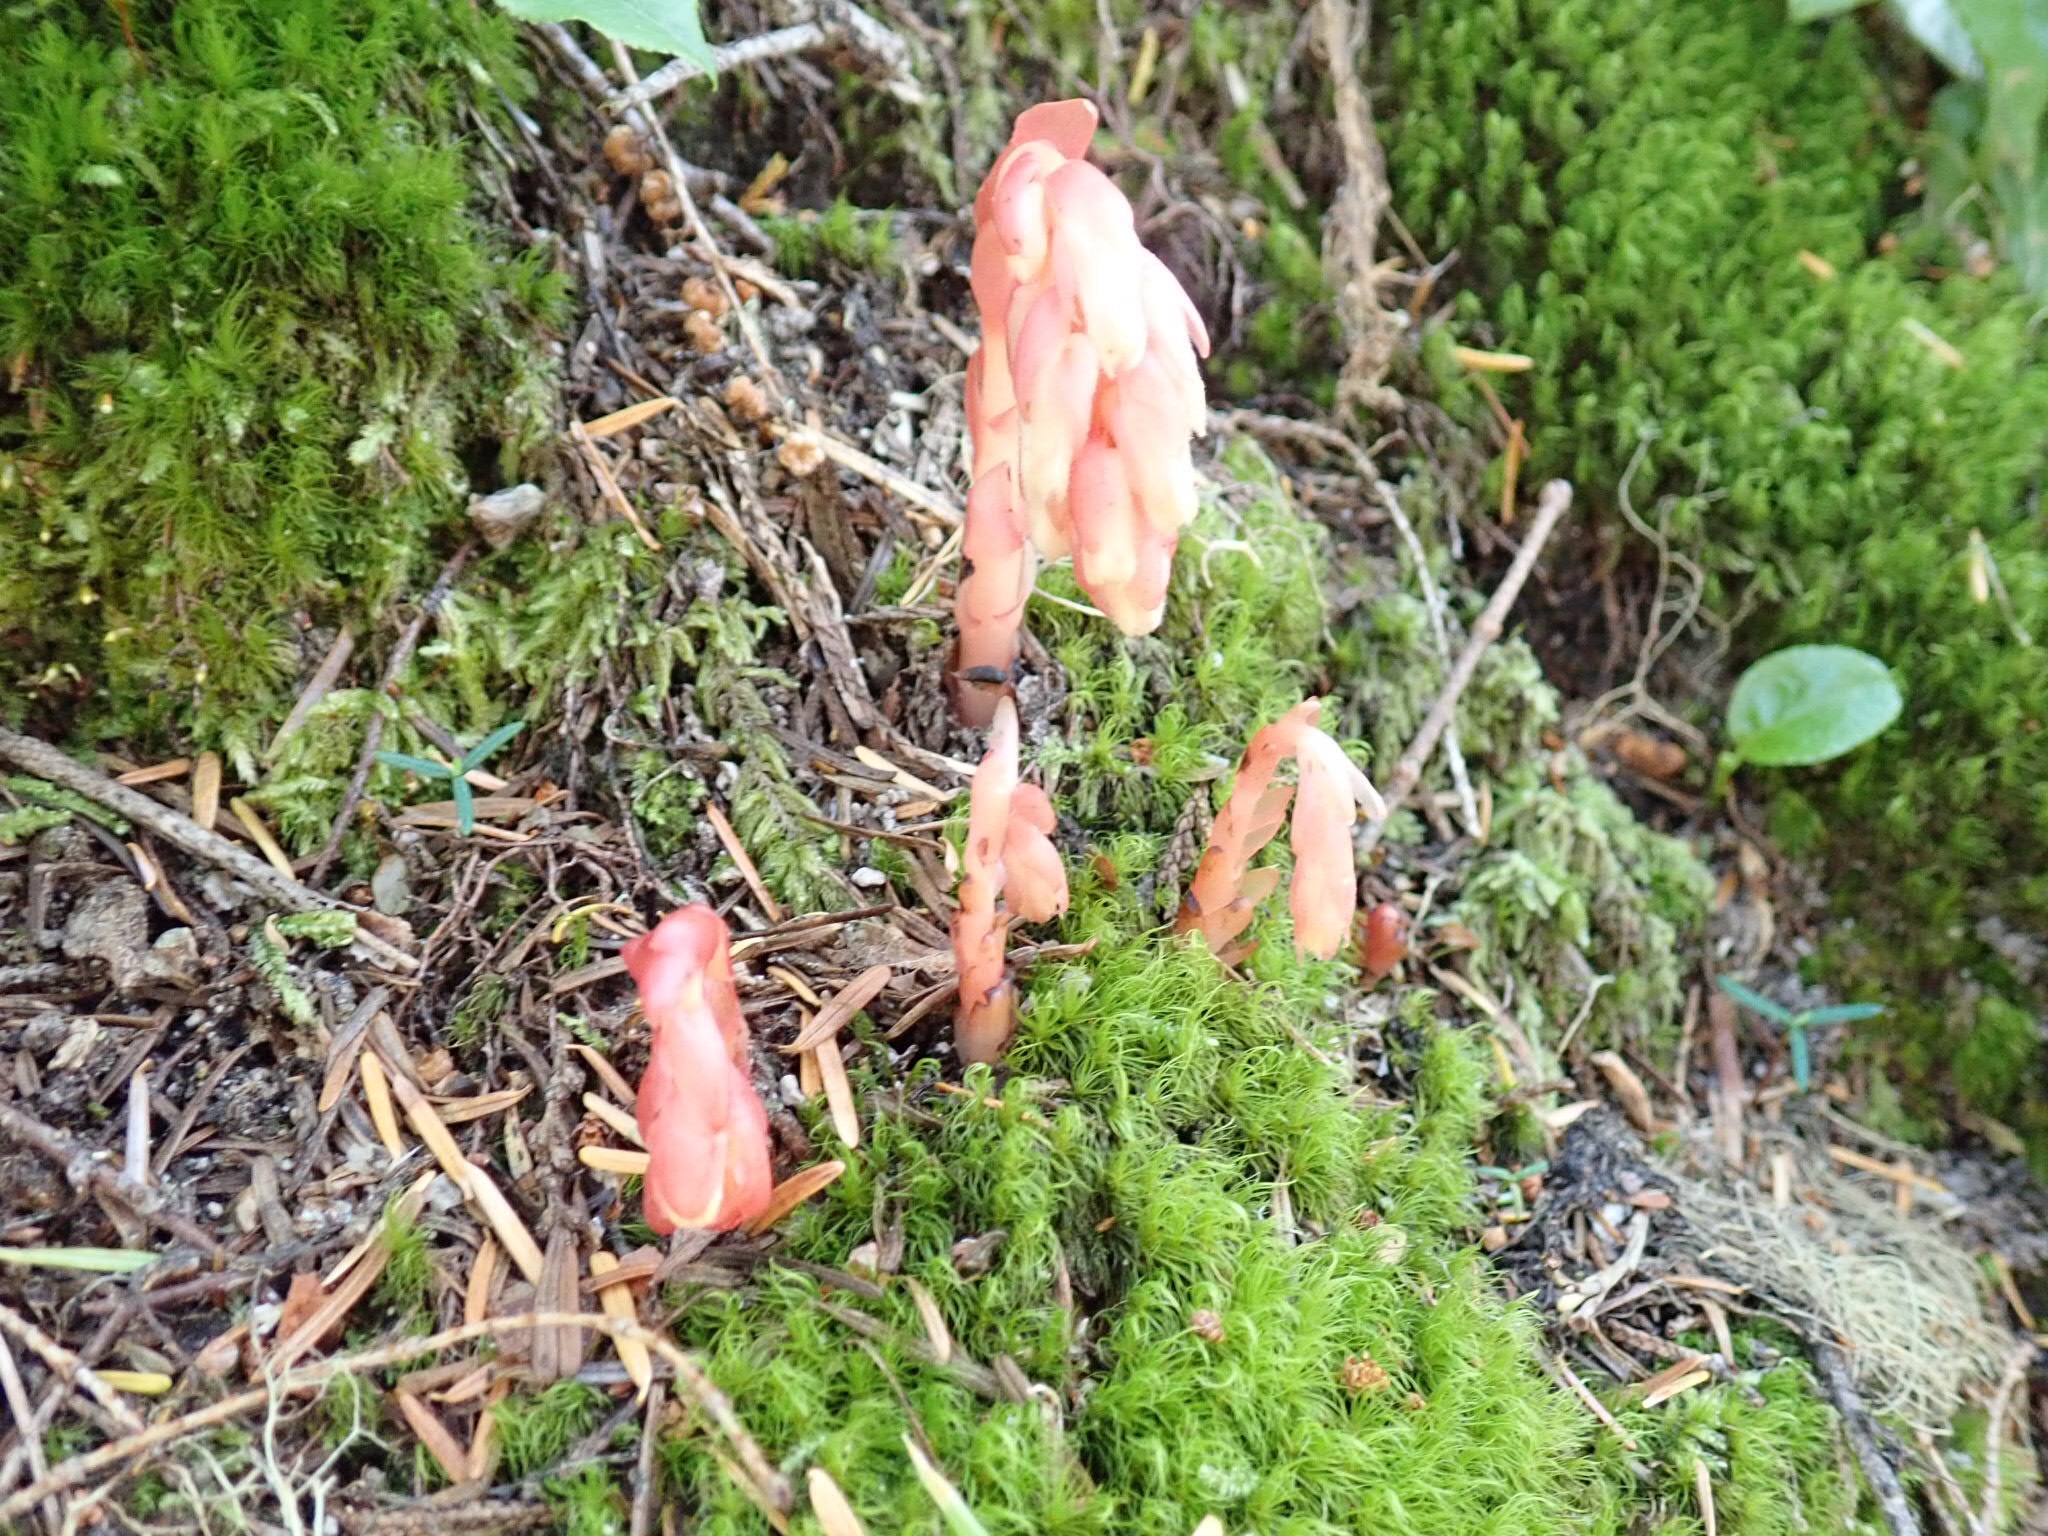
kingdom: Plantae
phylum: Tracheophyta
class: Magnoliopsida
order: Ericales
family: Ericaceae
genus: Hypopitys
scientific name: Hypopitys monotropa
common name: Yellow bird's-nest
